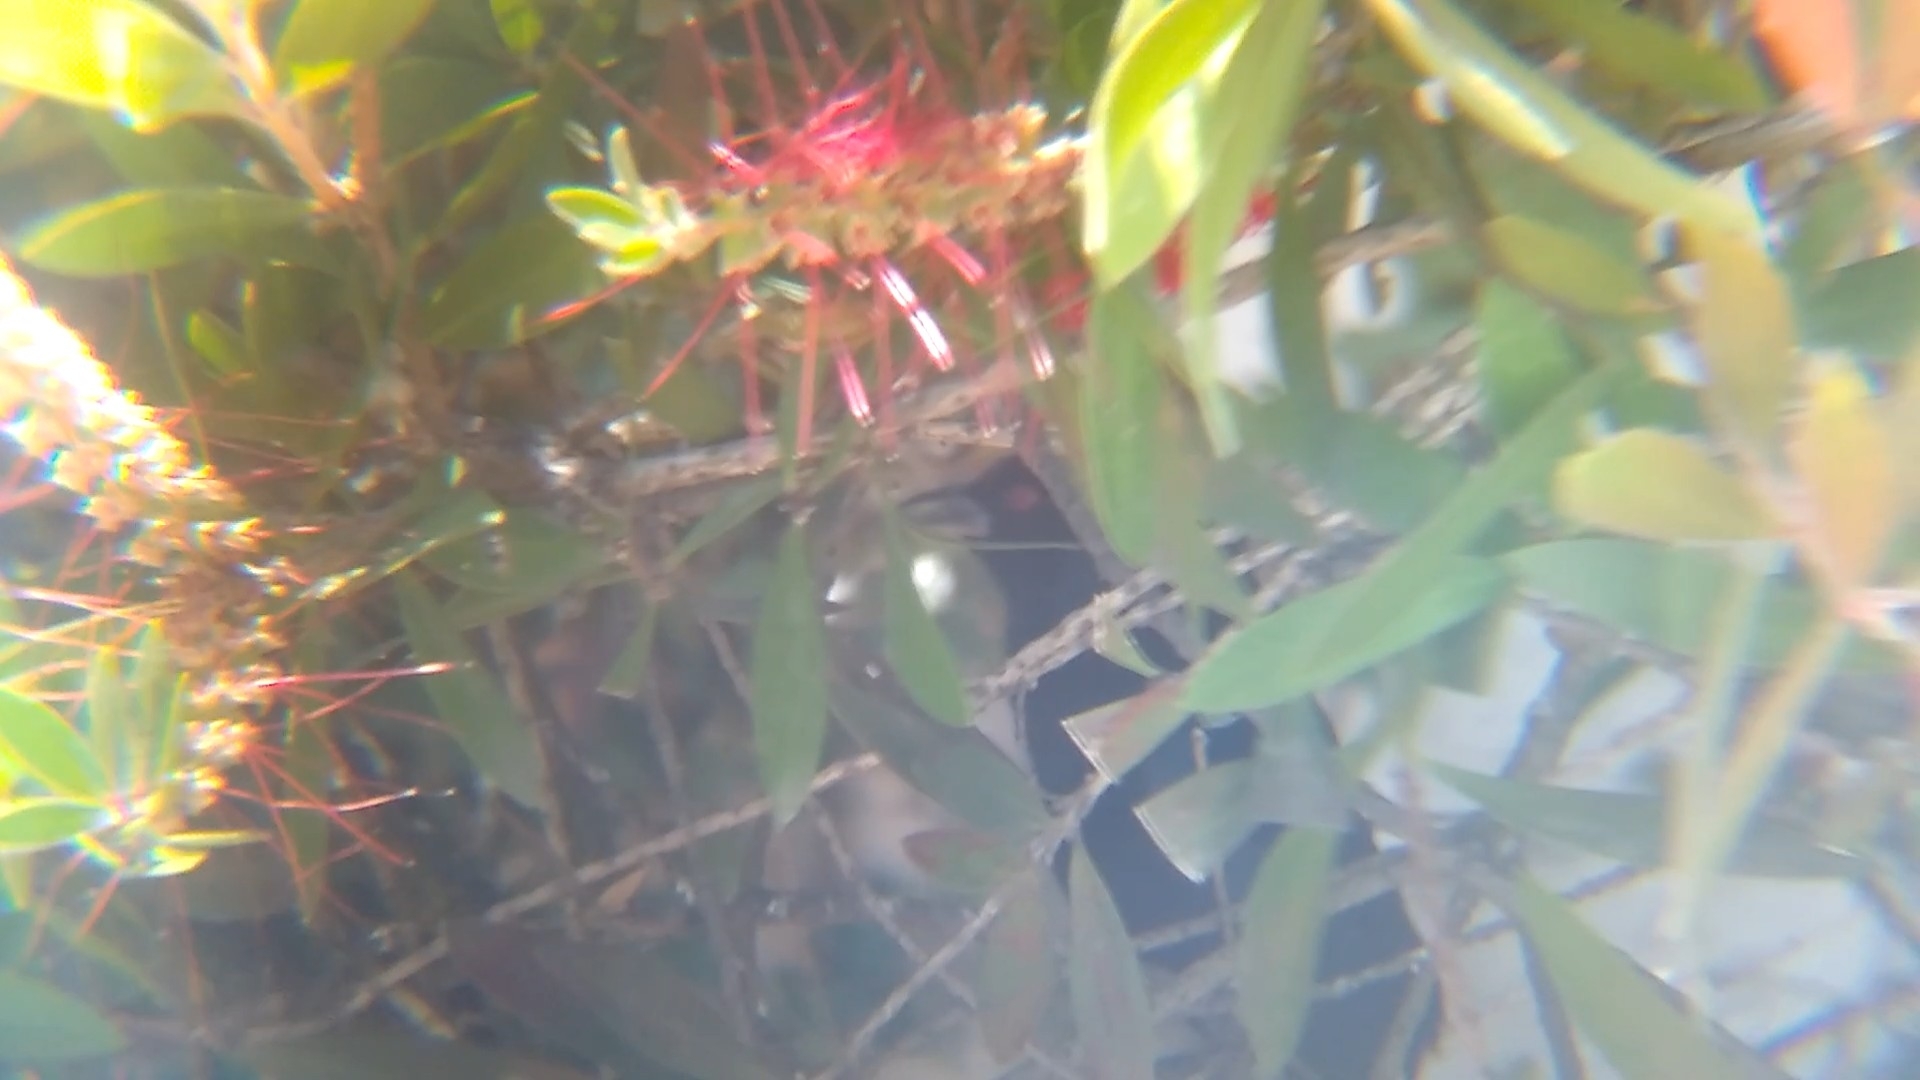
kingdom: Animalia
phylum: Chordata
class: Aves
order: Passeriformes
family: Icteridae
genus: Molothrus
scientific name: Molothrus aeneus
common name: Bronzed cowbird
